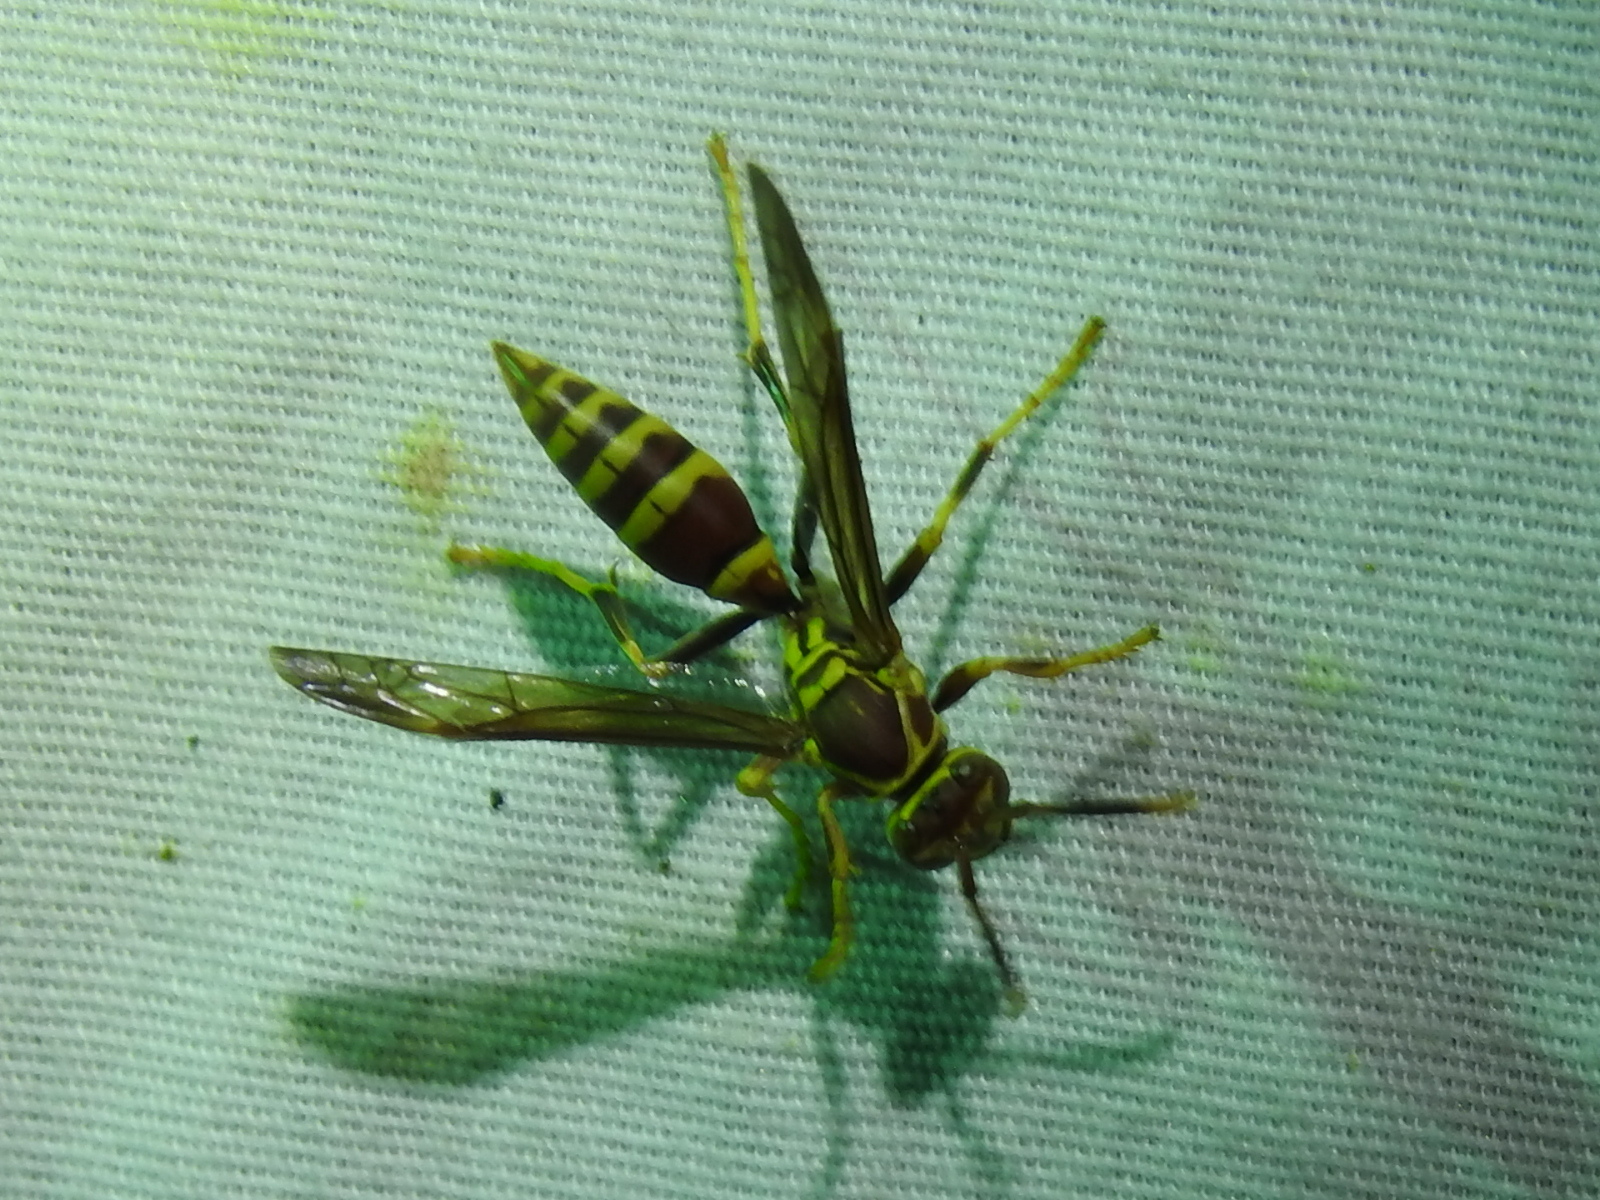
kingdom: Animalia
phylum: Arthropoda
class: Insecta
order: Hymenoptera
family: Eumenidae
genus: Polistes
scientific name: Polistes exclamans
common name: Paper wasp
